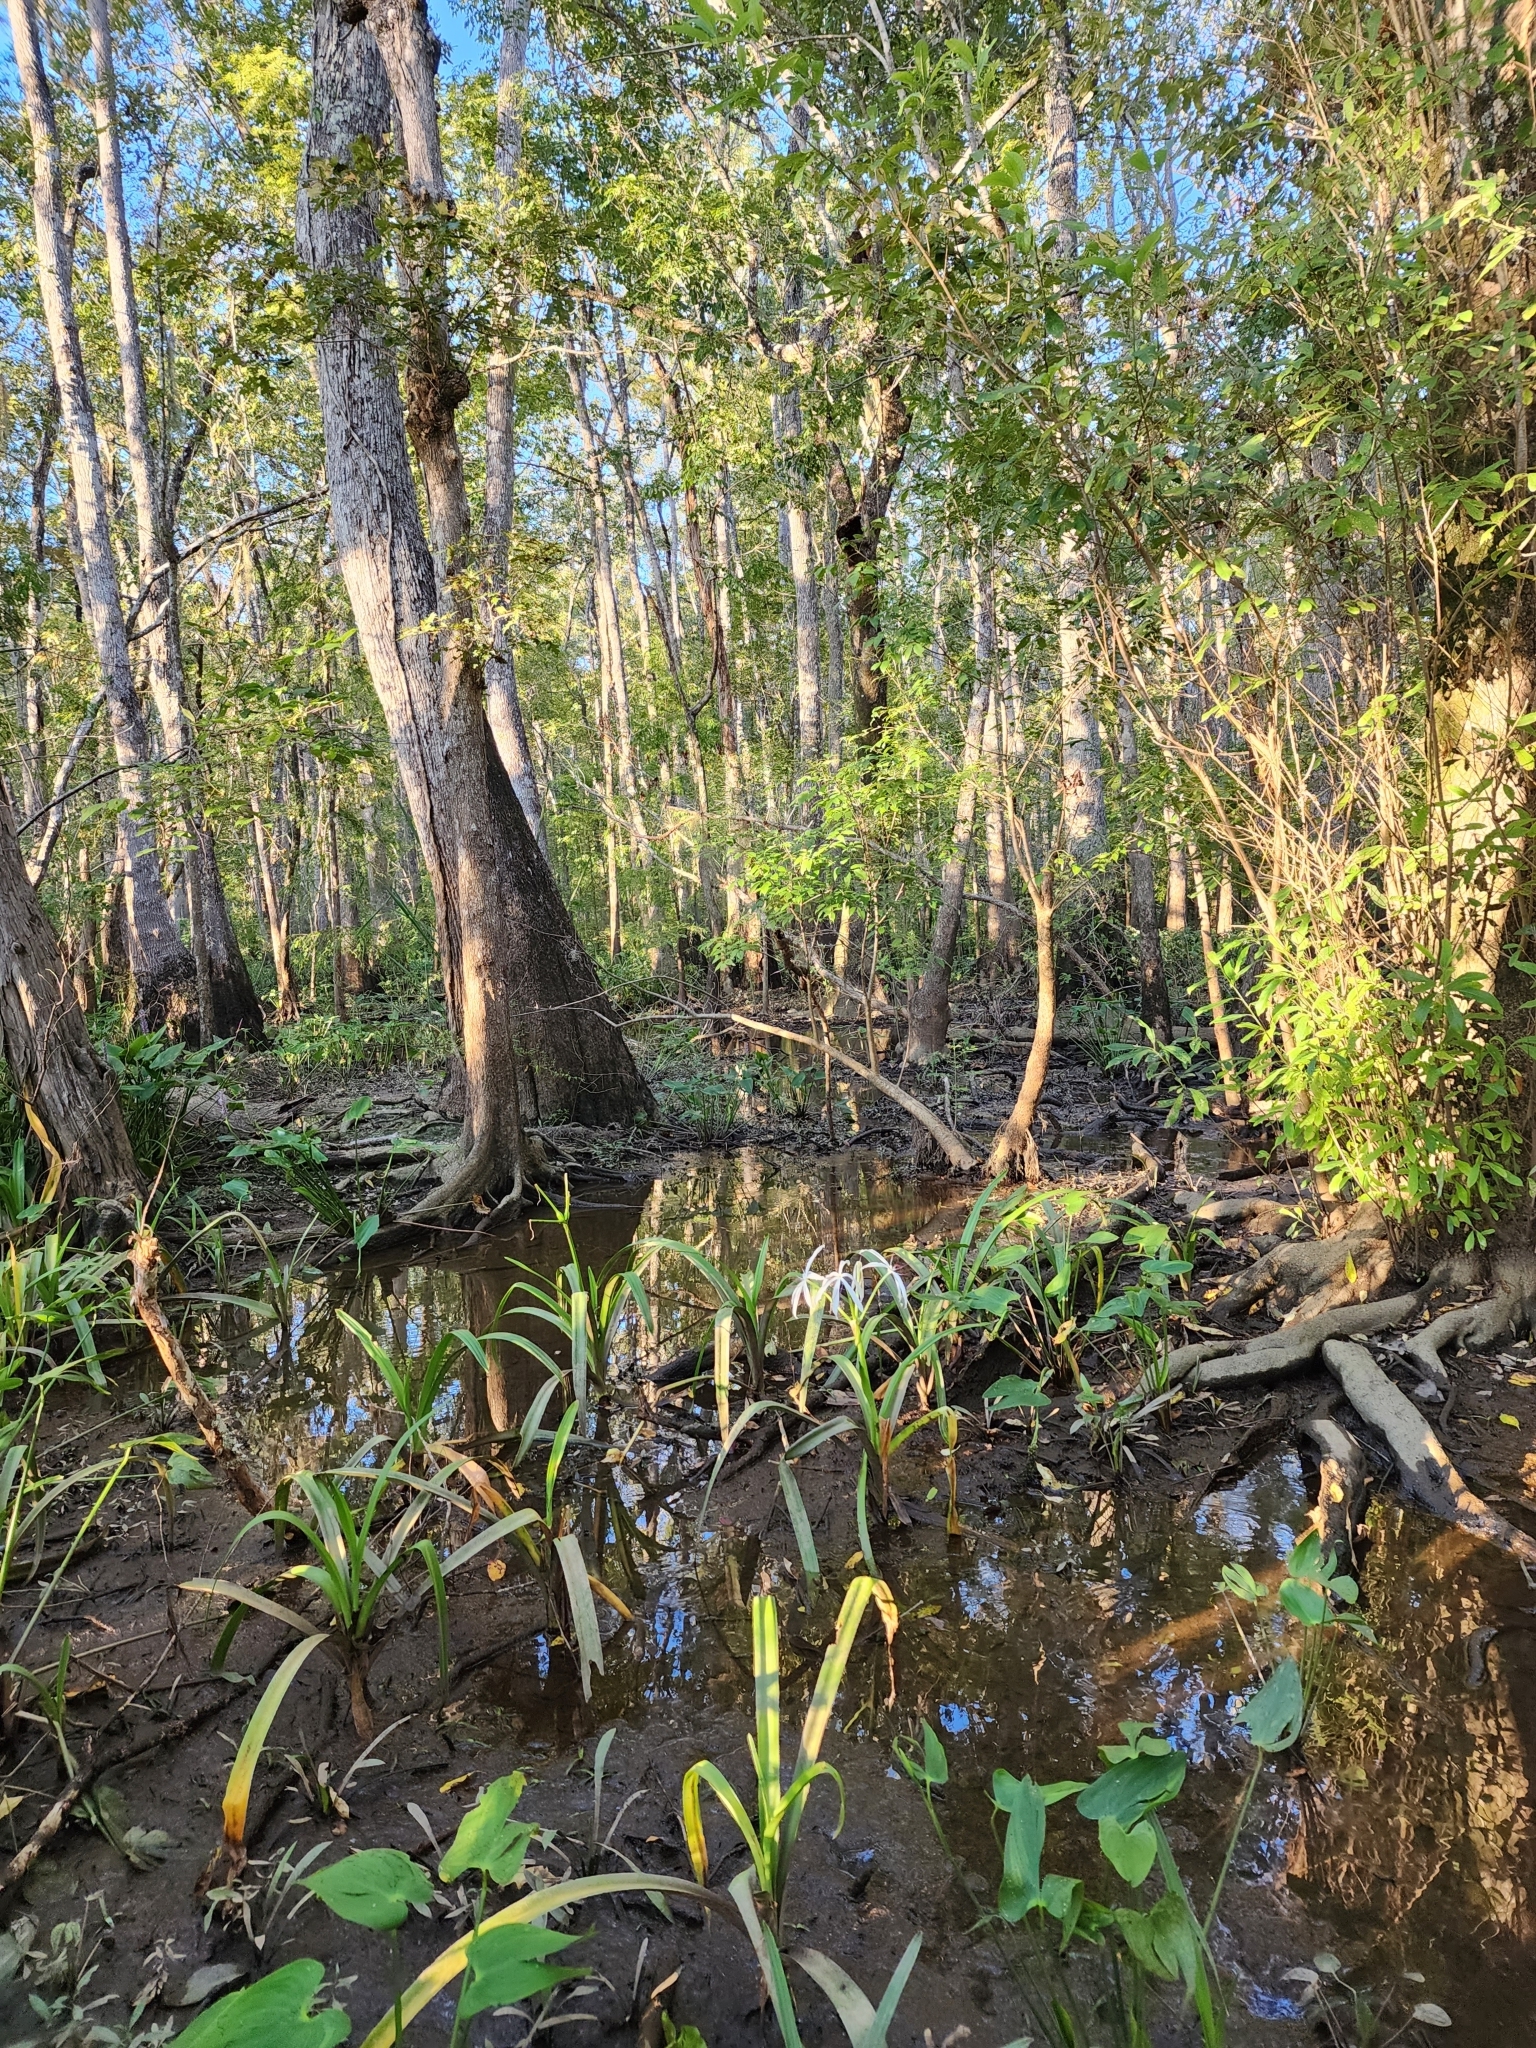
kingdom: Plantae
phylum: Tracheophyta
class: Liliopsida
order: Asparagales
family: Amaryllidaceae
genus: Crinum
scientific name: Crinum americanum
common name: Florida swamp-lily
